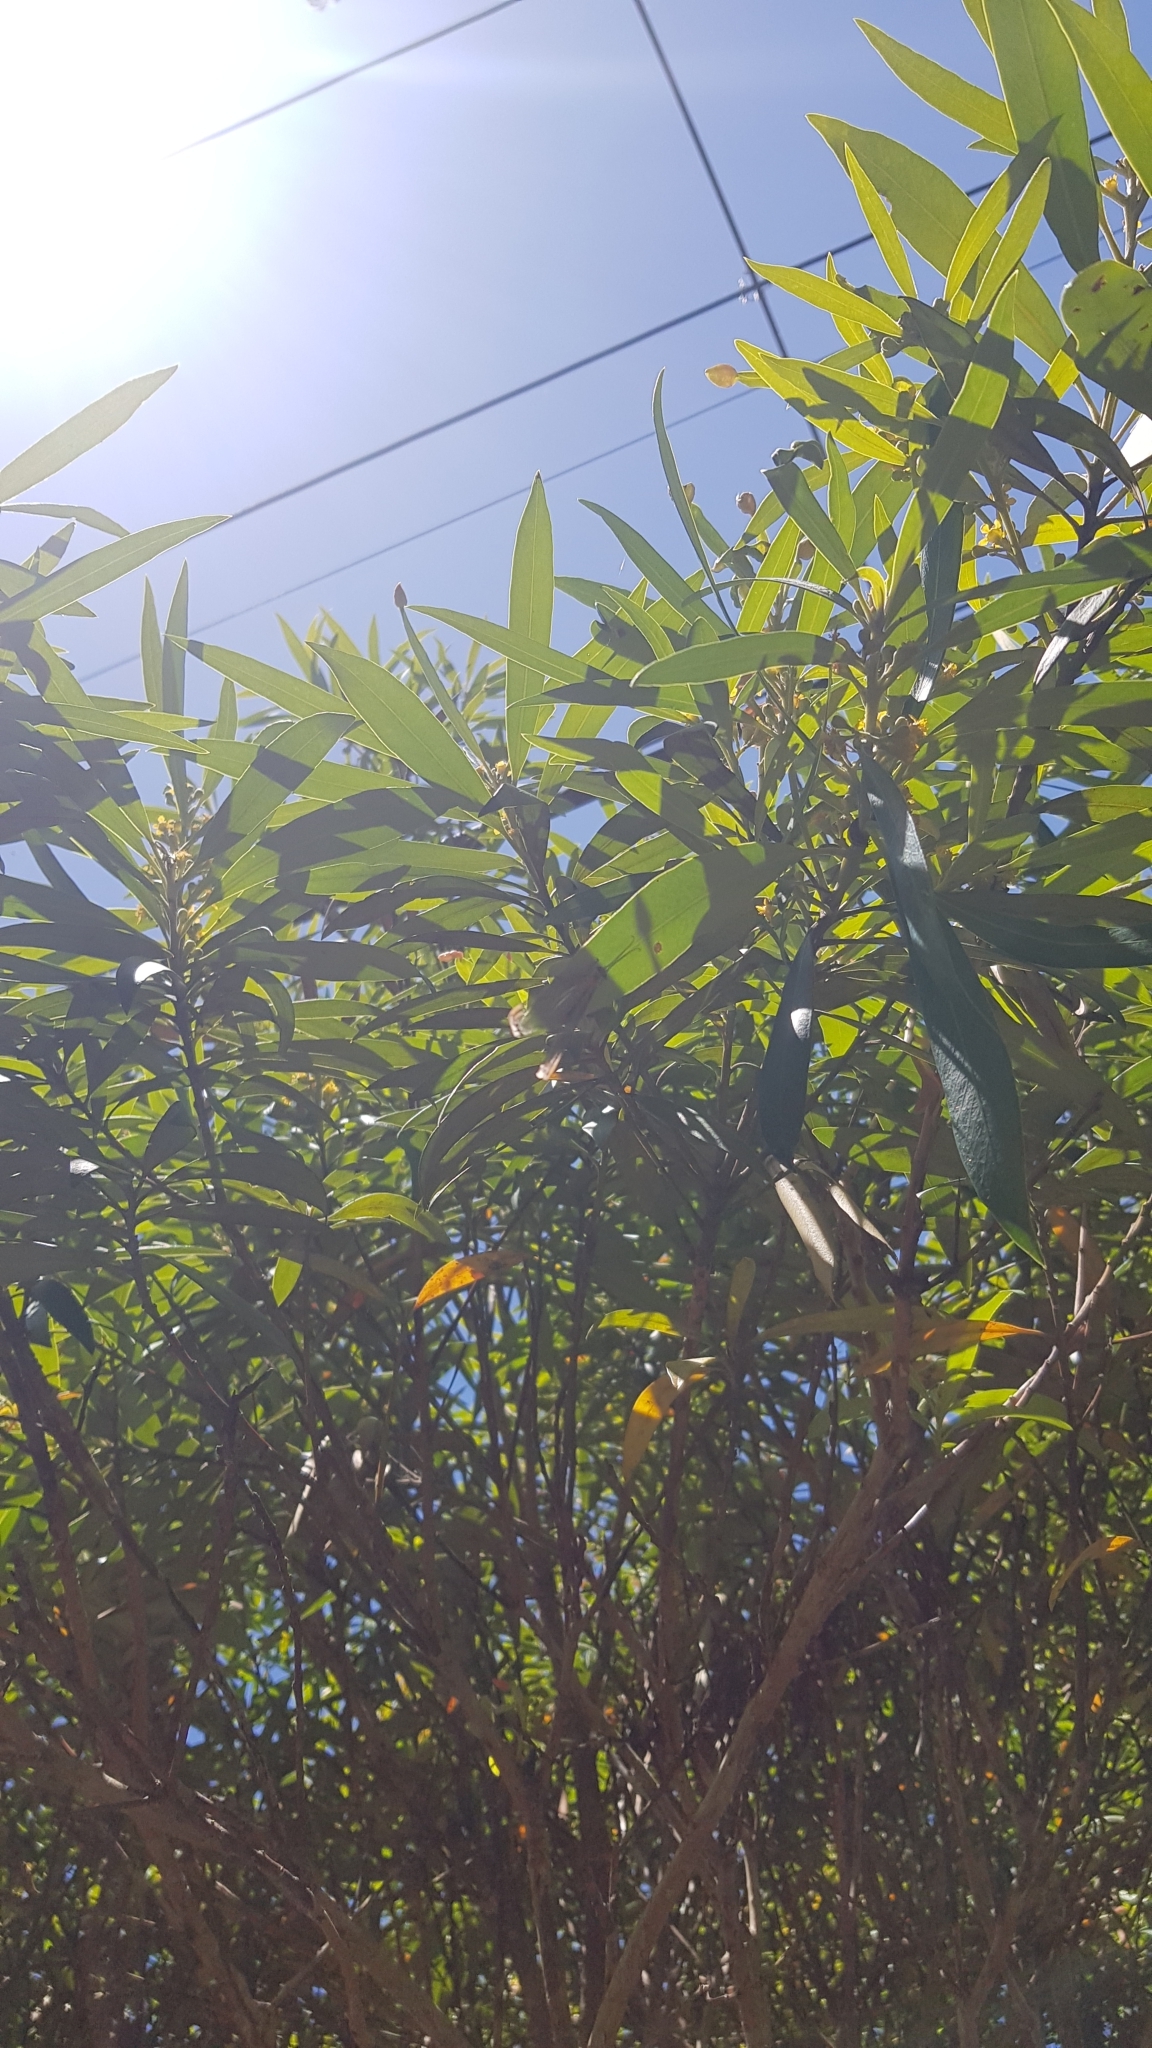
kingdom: Animalia
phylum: Arthropoda
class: Insecta
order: Neuroptera
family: Nymphidae
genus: Nymphes
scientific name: Nymphes myrmeleonoides
